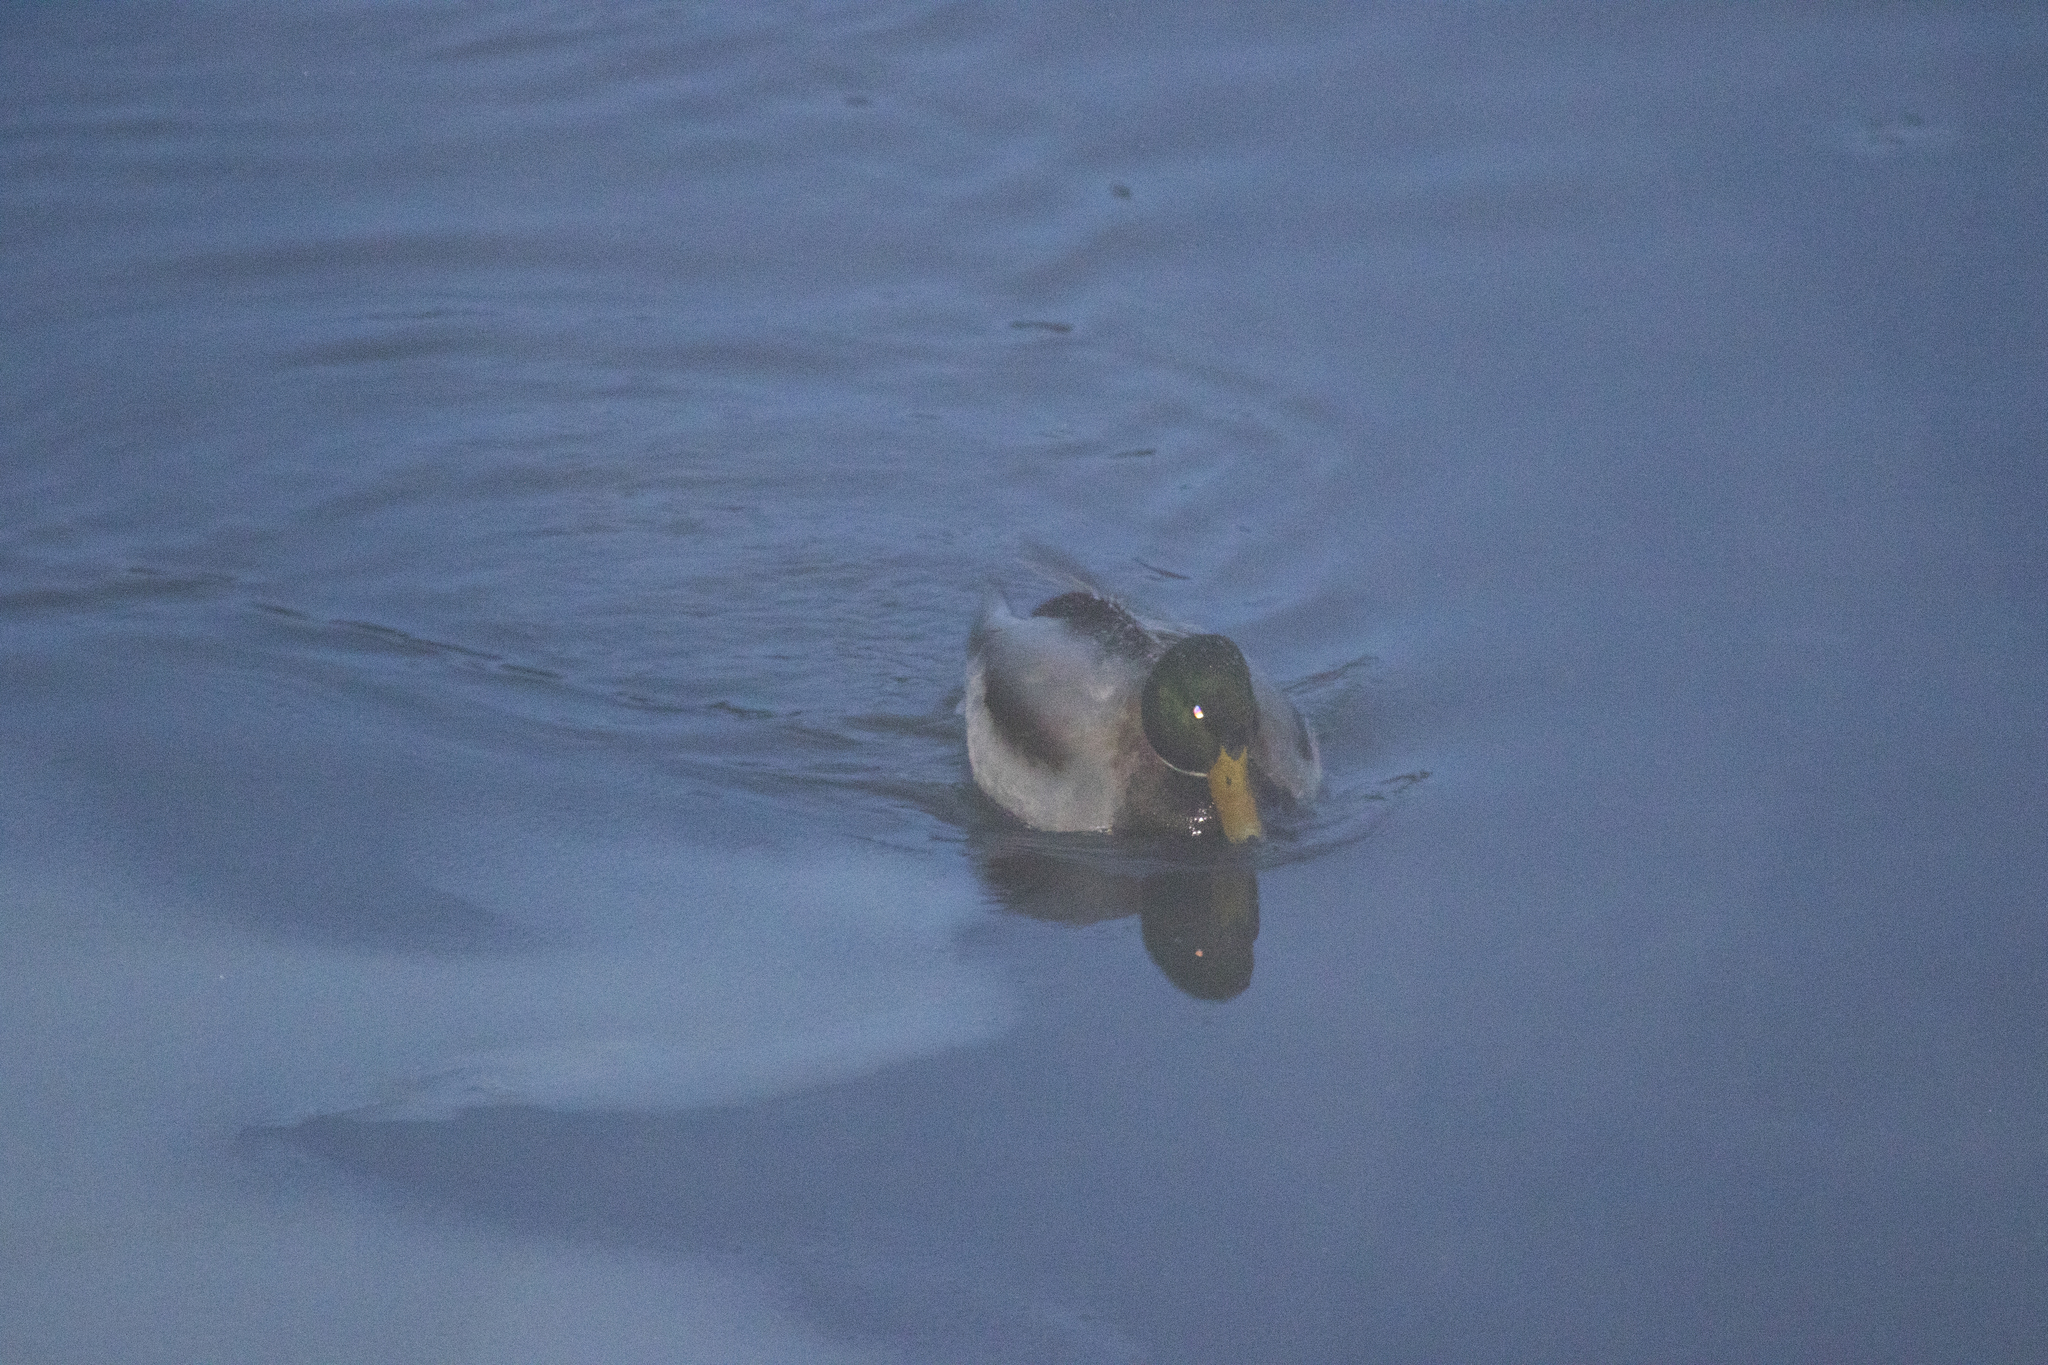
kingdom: Animalia
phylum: Chordata
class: Aves
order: Anseriformes
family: Anatidae
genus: Anas
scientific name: Anas platyrhynchos
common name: Mallard
